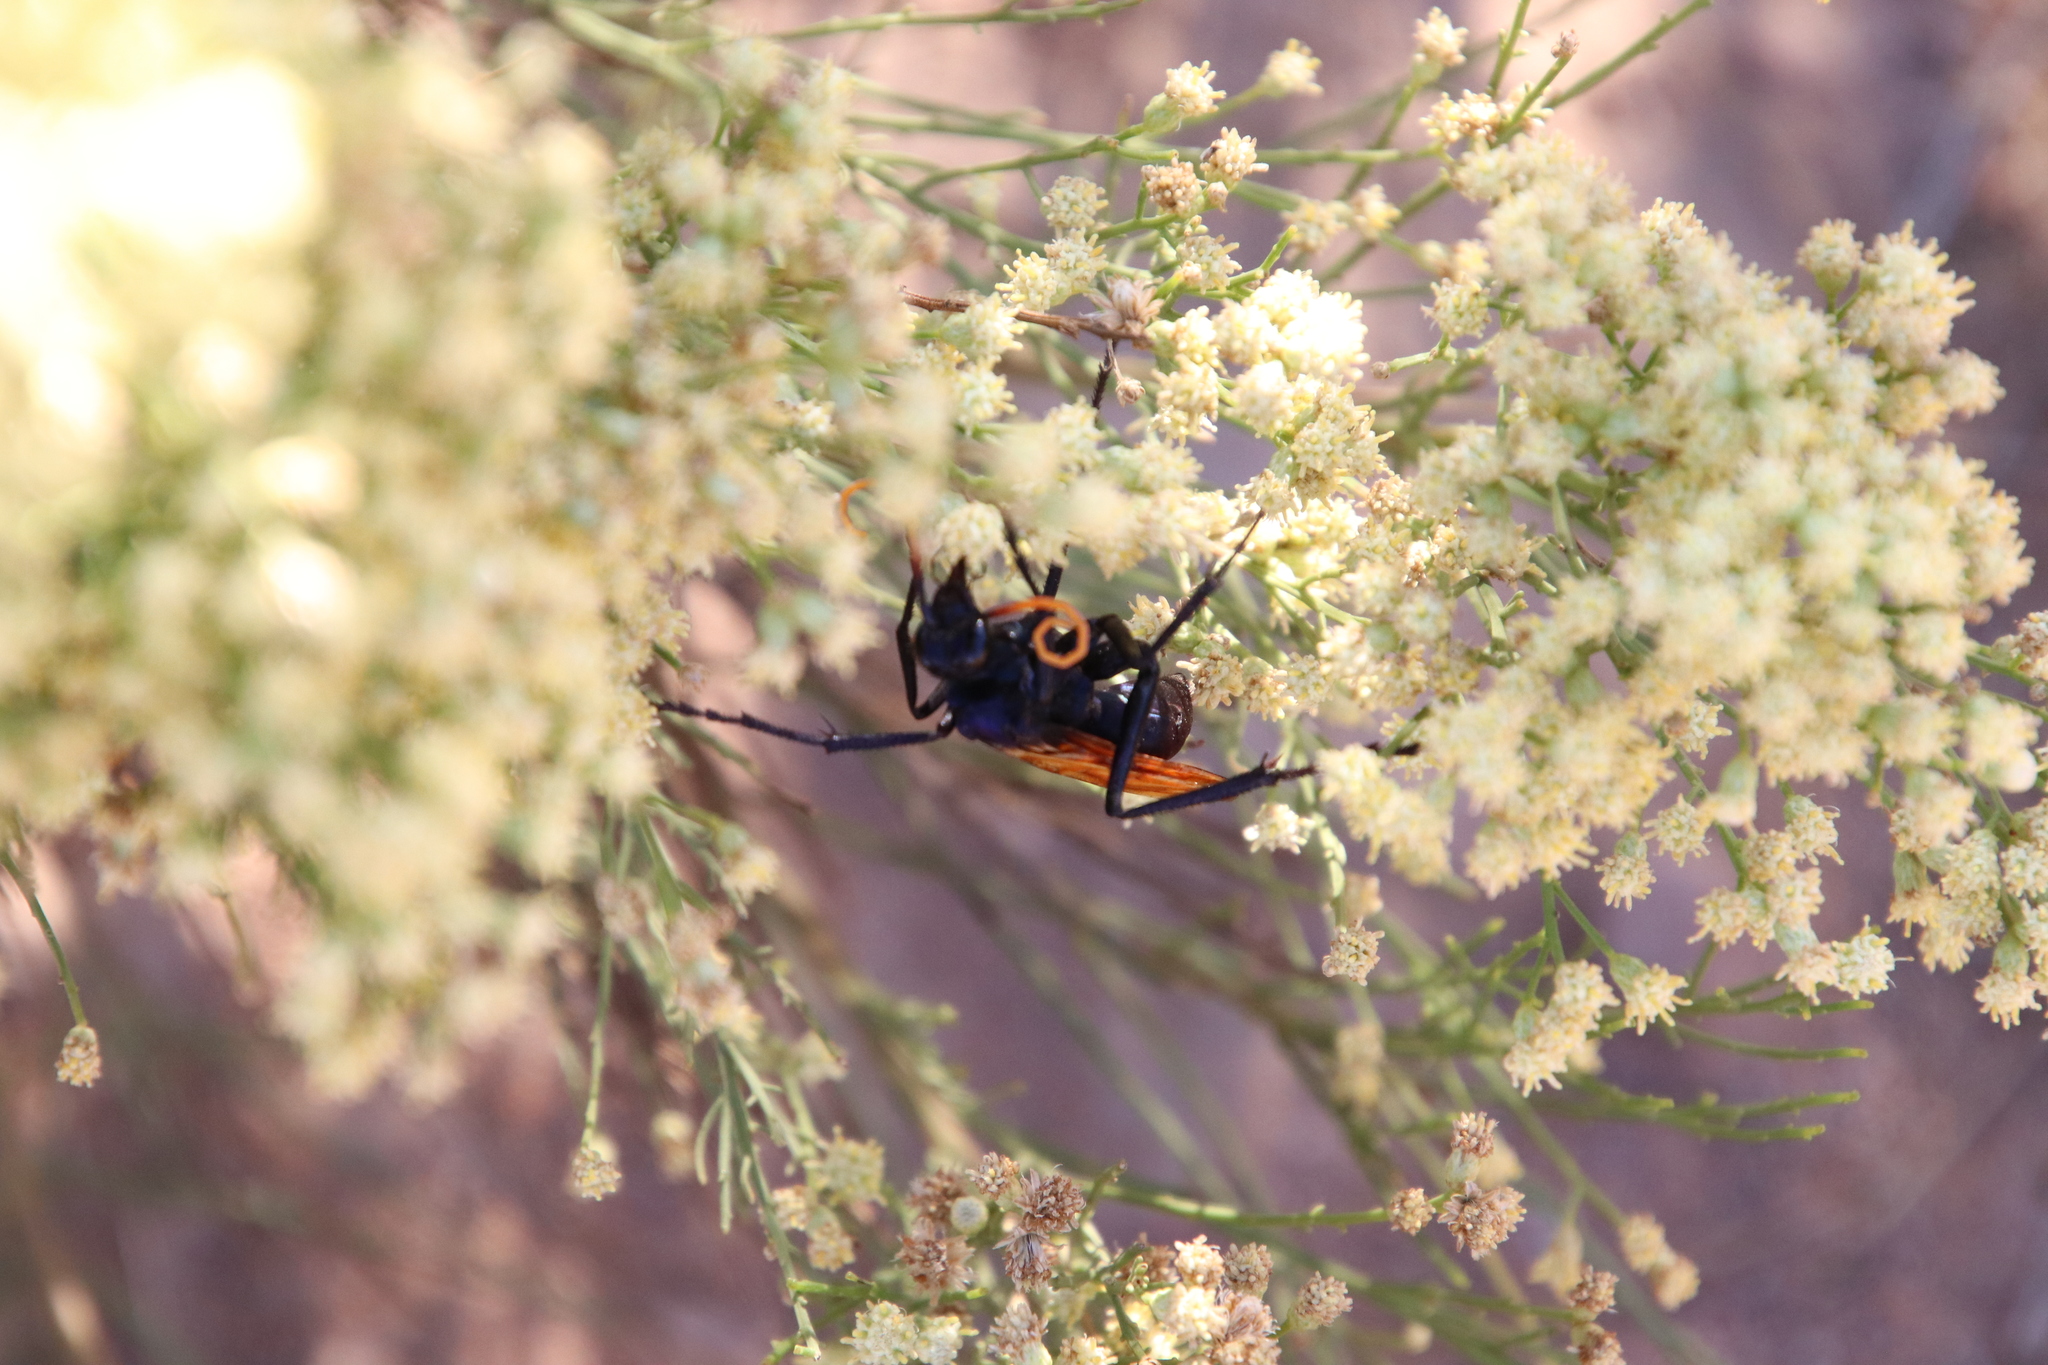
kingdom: Animalia
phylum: Arthropoda
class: Insecta
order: Hymenoptera
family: Pompilidae
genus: Pepsis
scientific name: Pepsis mildei
